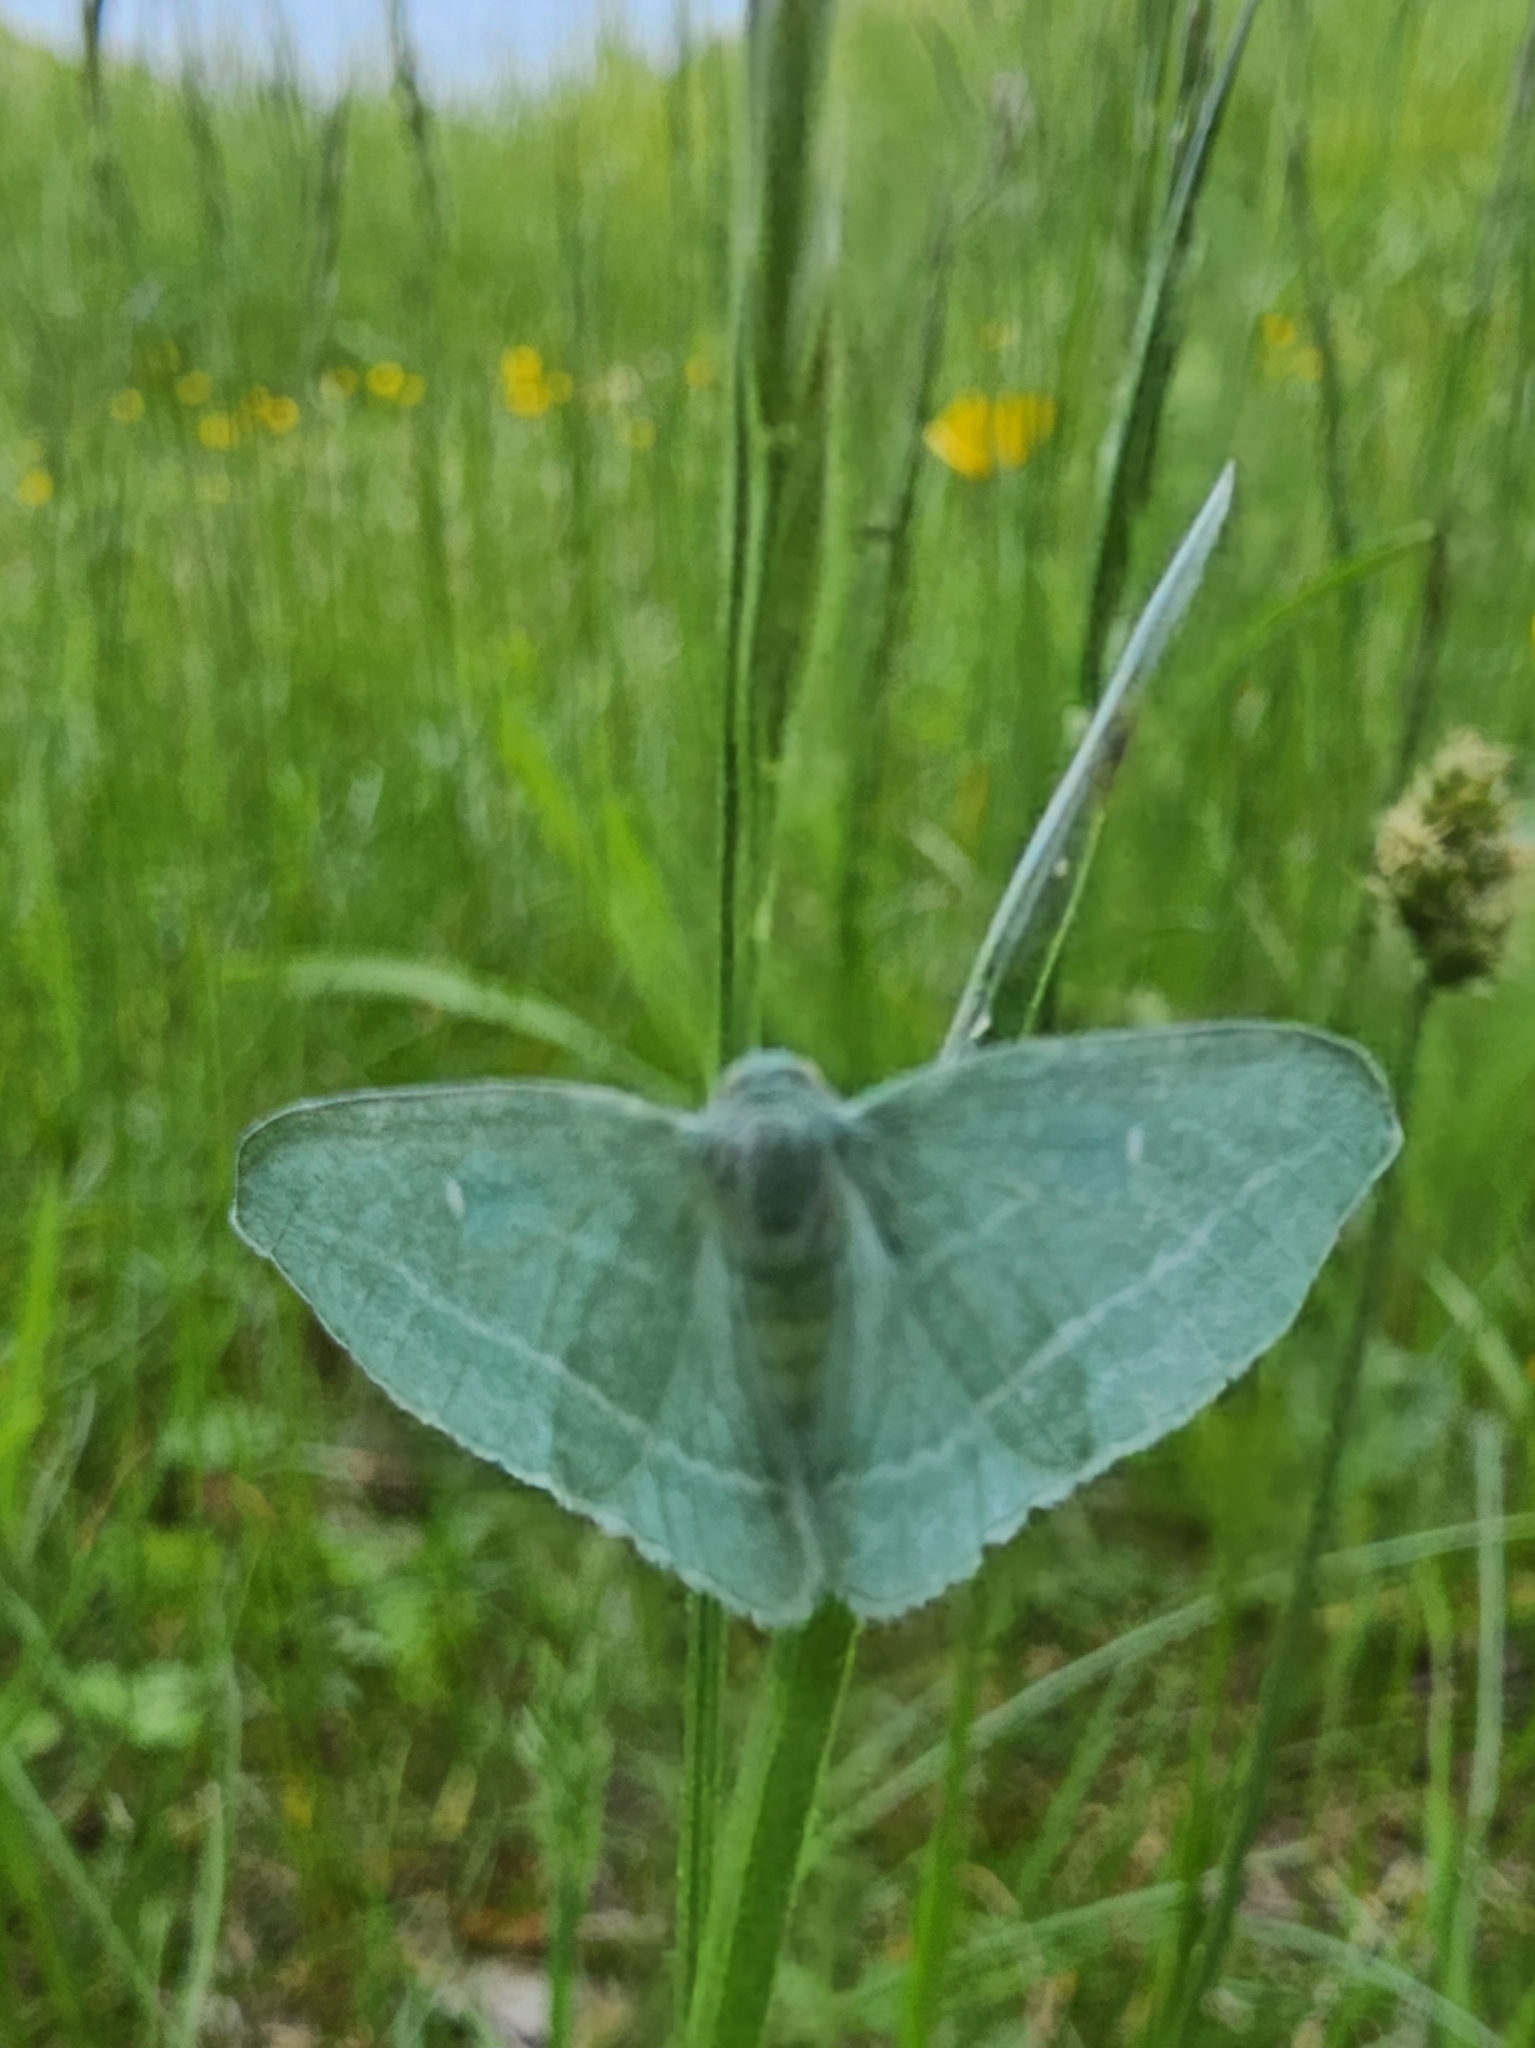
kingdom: Animalia
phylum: Arthropoda
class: Insecta
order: Lepidoptera
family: Geometridae
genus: Dyspteris
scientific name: Dyspteris abortivaria
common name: Bad-wing
